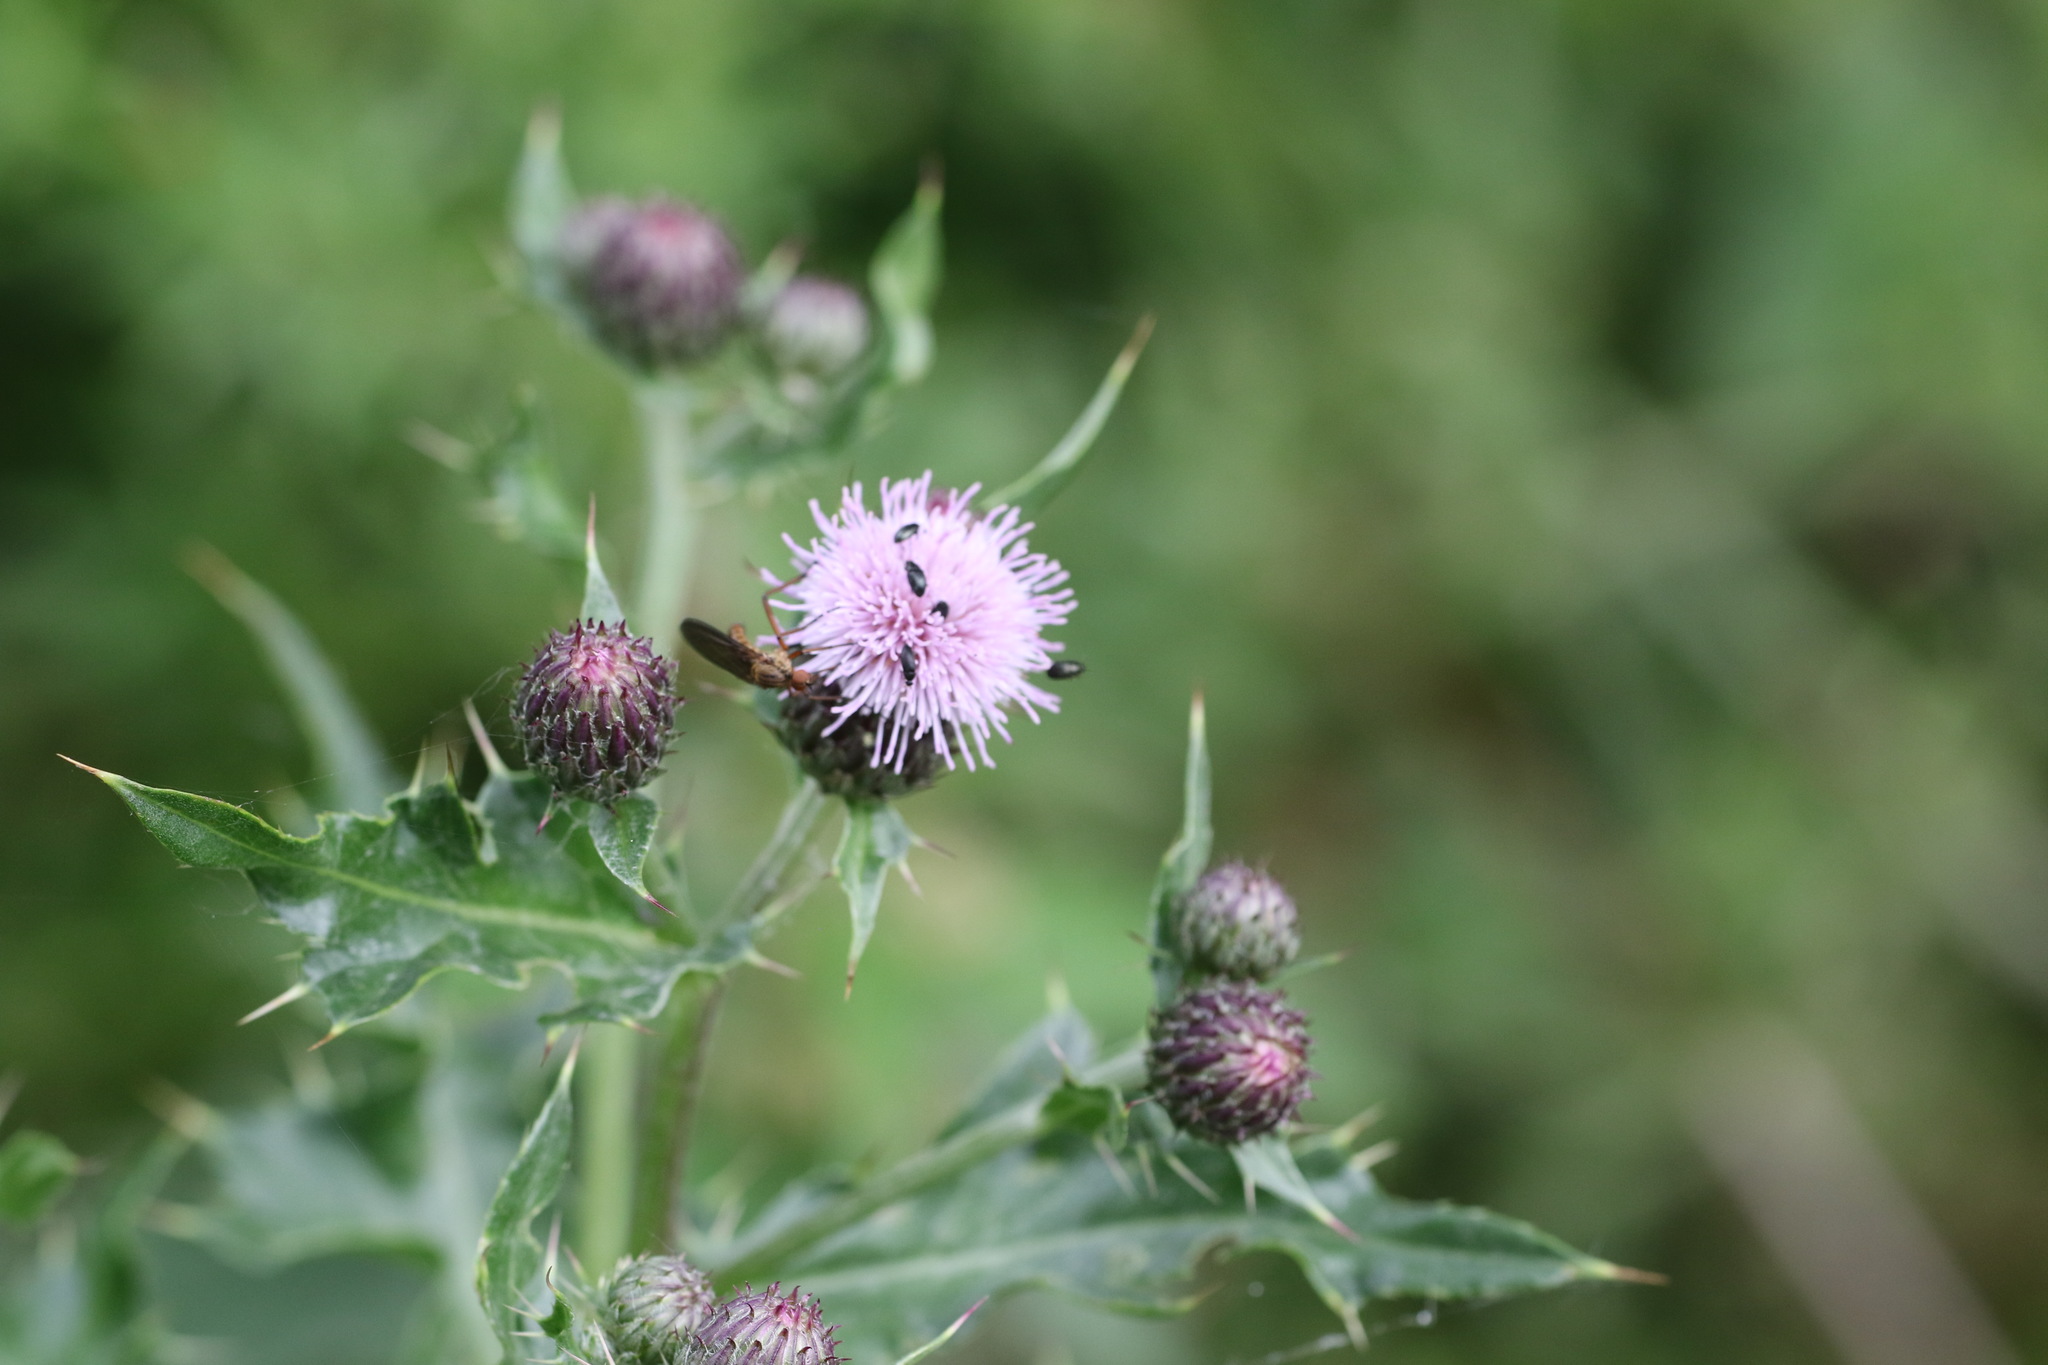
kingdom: Plantae
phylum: Tracheophyta
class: Magnoliopsida
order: Asterales
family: Asteraceae
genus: Cirsium
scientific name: Cirsium arvense
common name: Creeping thistle
